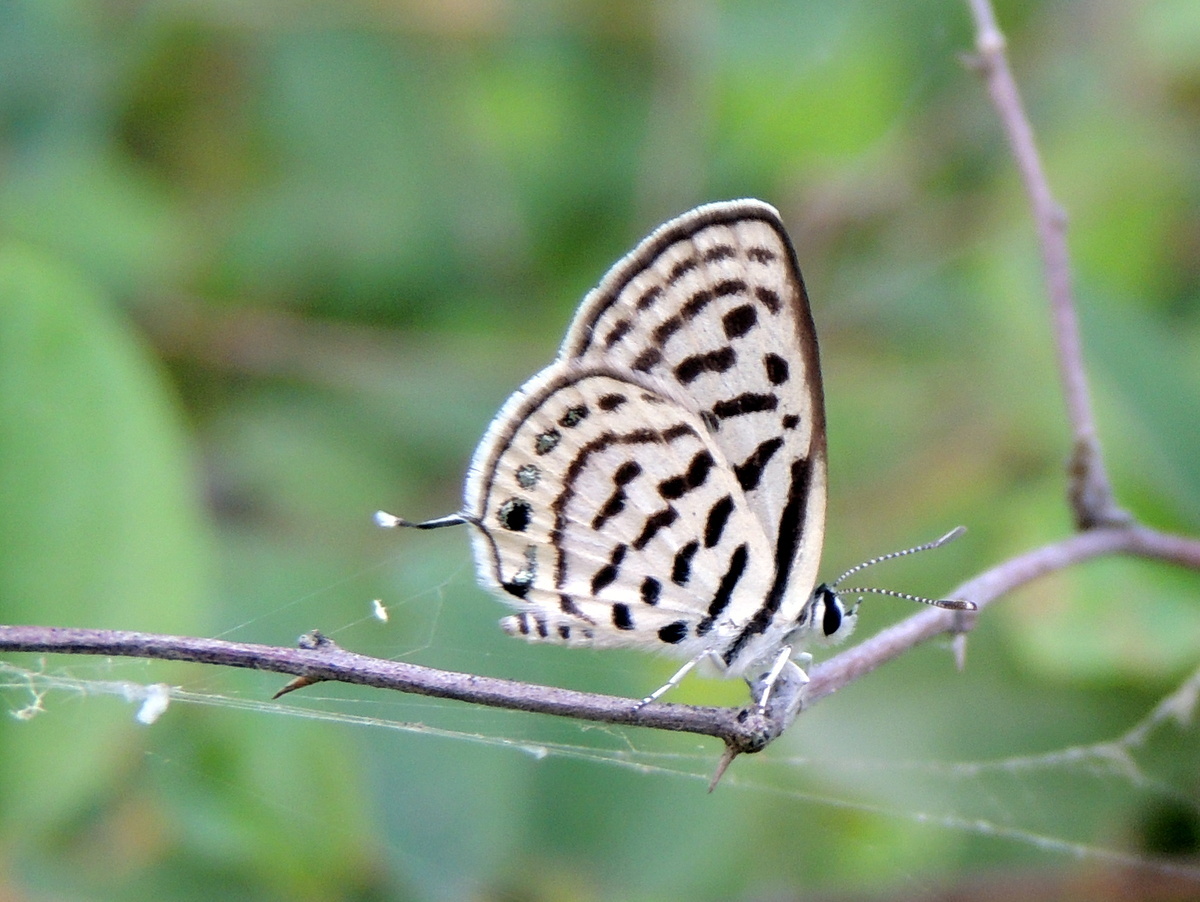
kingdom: Animalia
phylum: Arthropoda
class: Insecta
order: Lepidoptera
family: Lycaenidae
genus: Tarucus
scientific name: Tarucus
